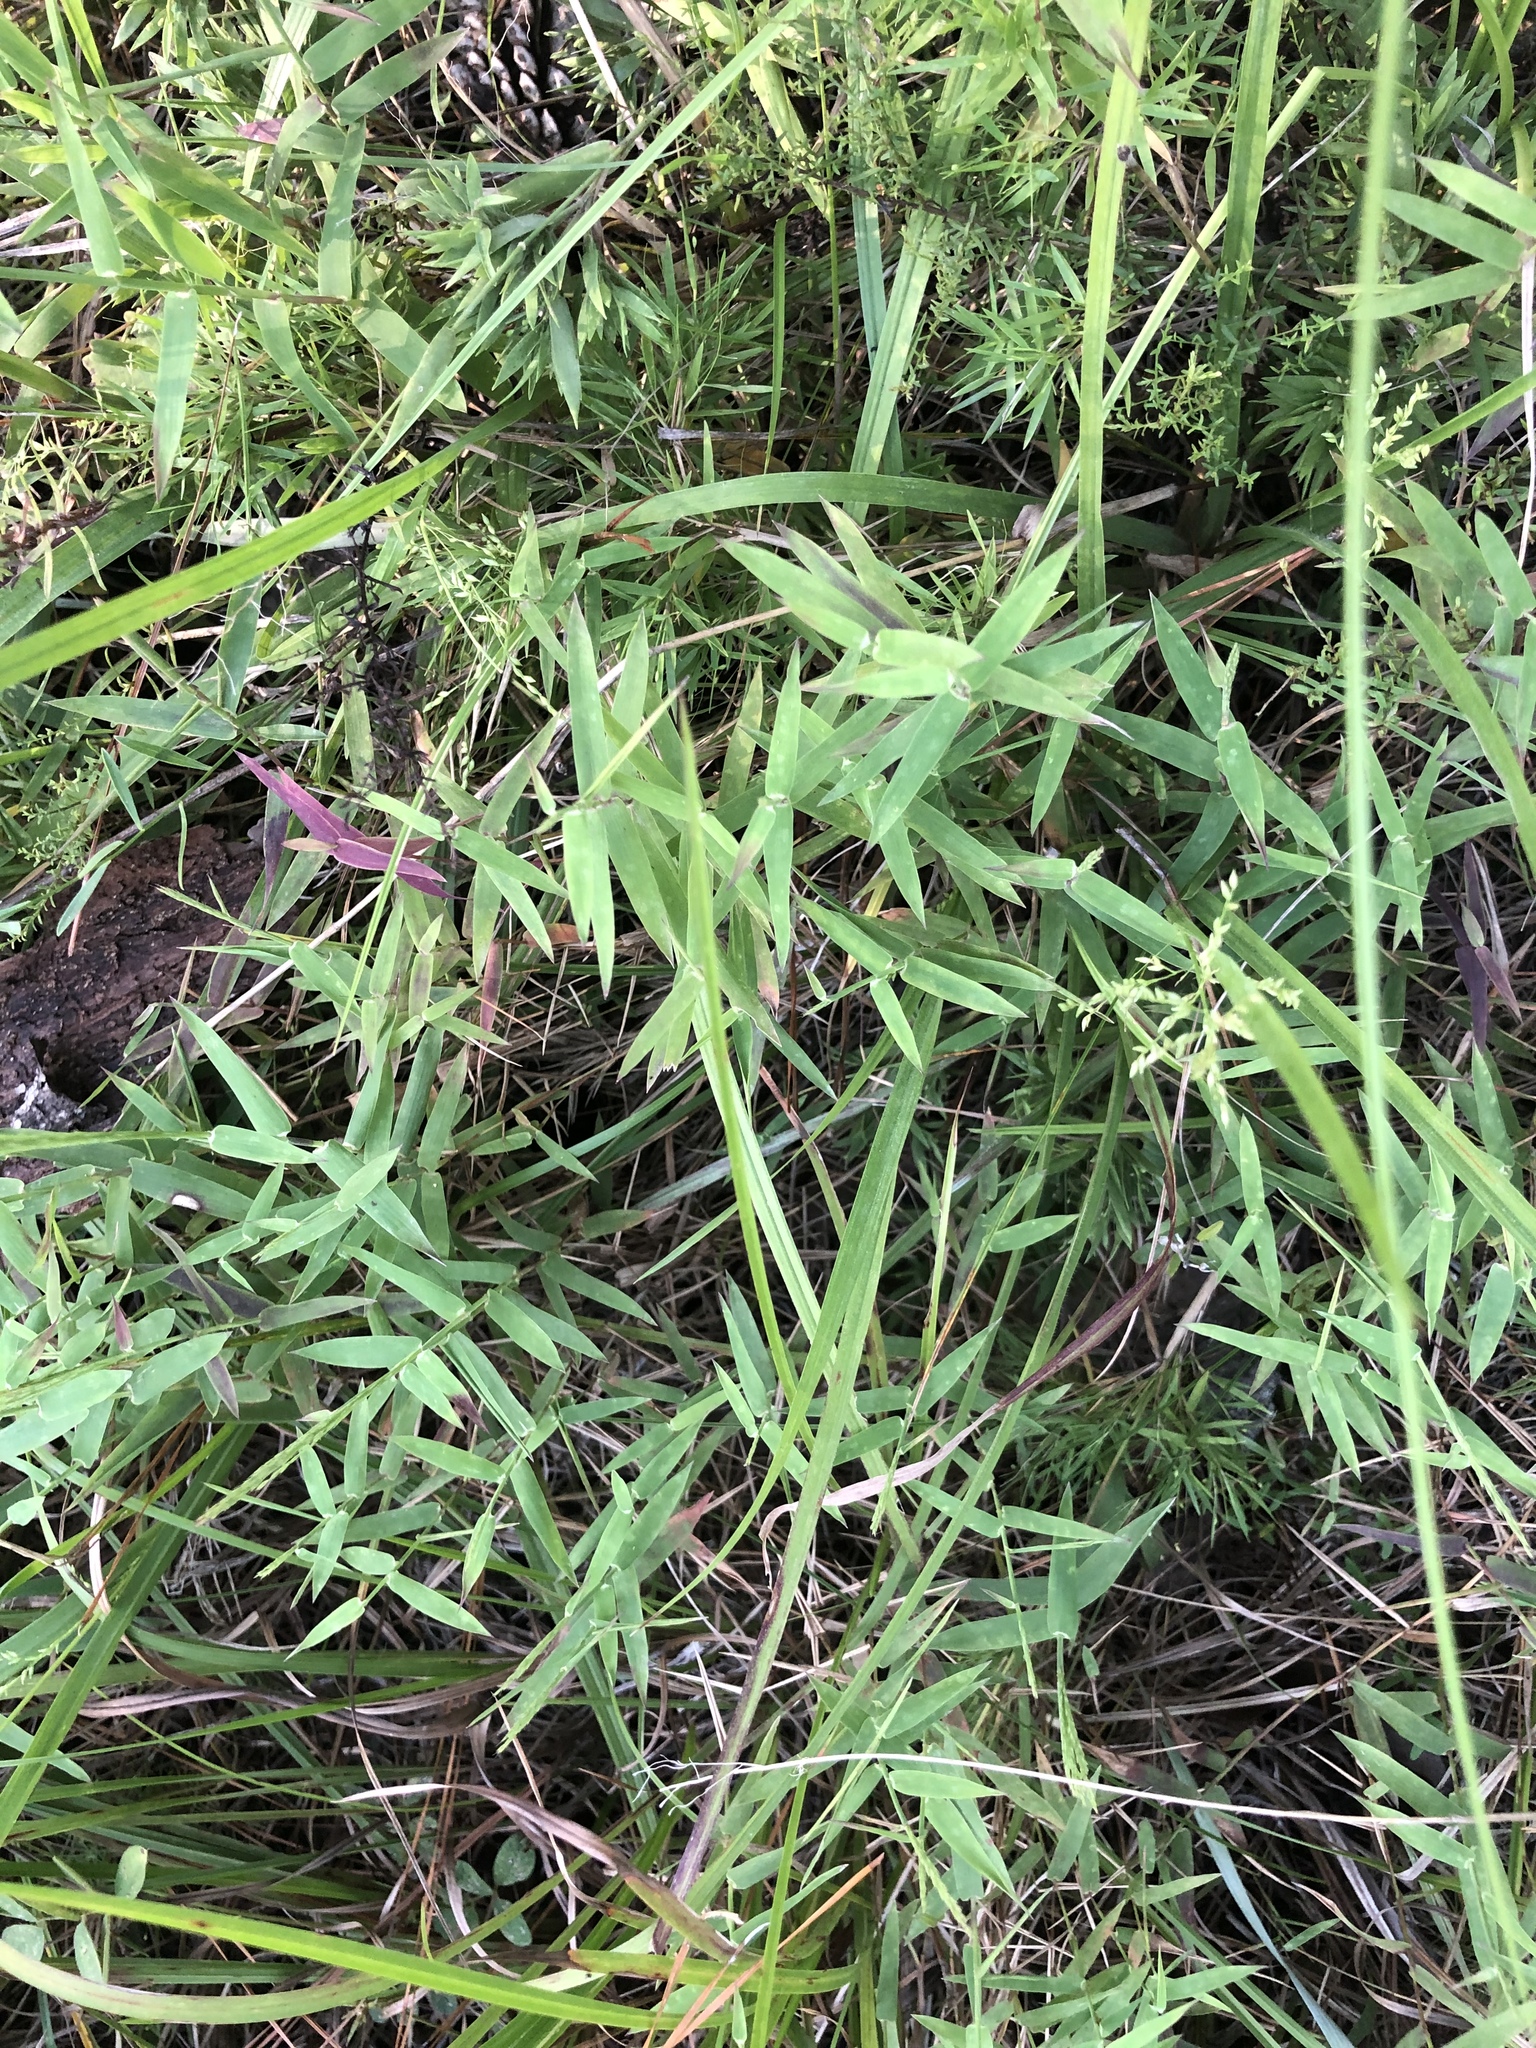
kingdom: Plantae
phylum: Tracheophyta
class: Liliopsida
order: Poales
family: Poaceae
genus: Gymnopogon
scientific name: Gymnopogon brevifolius
